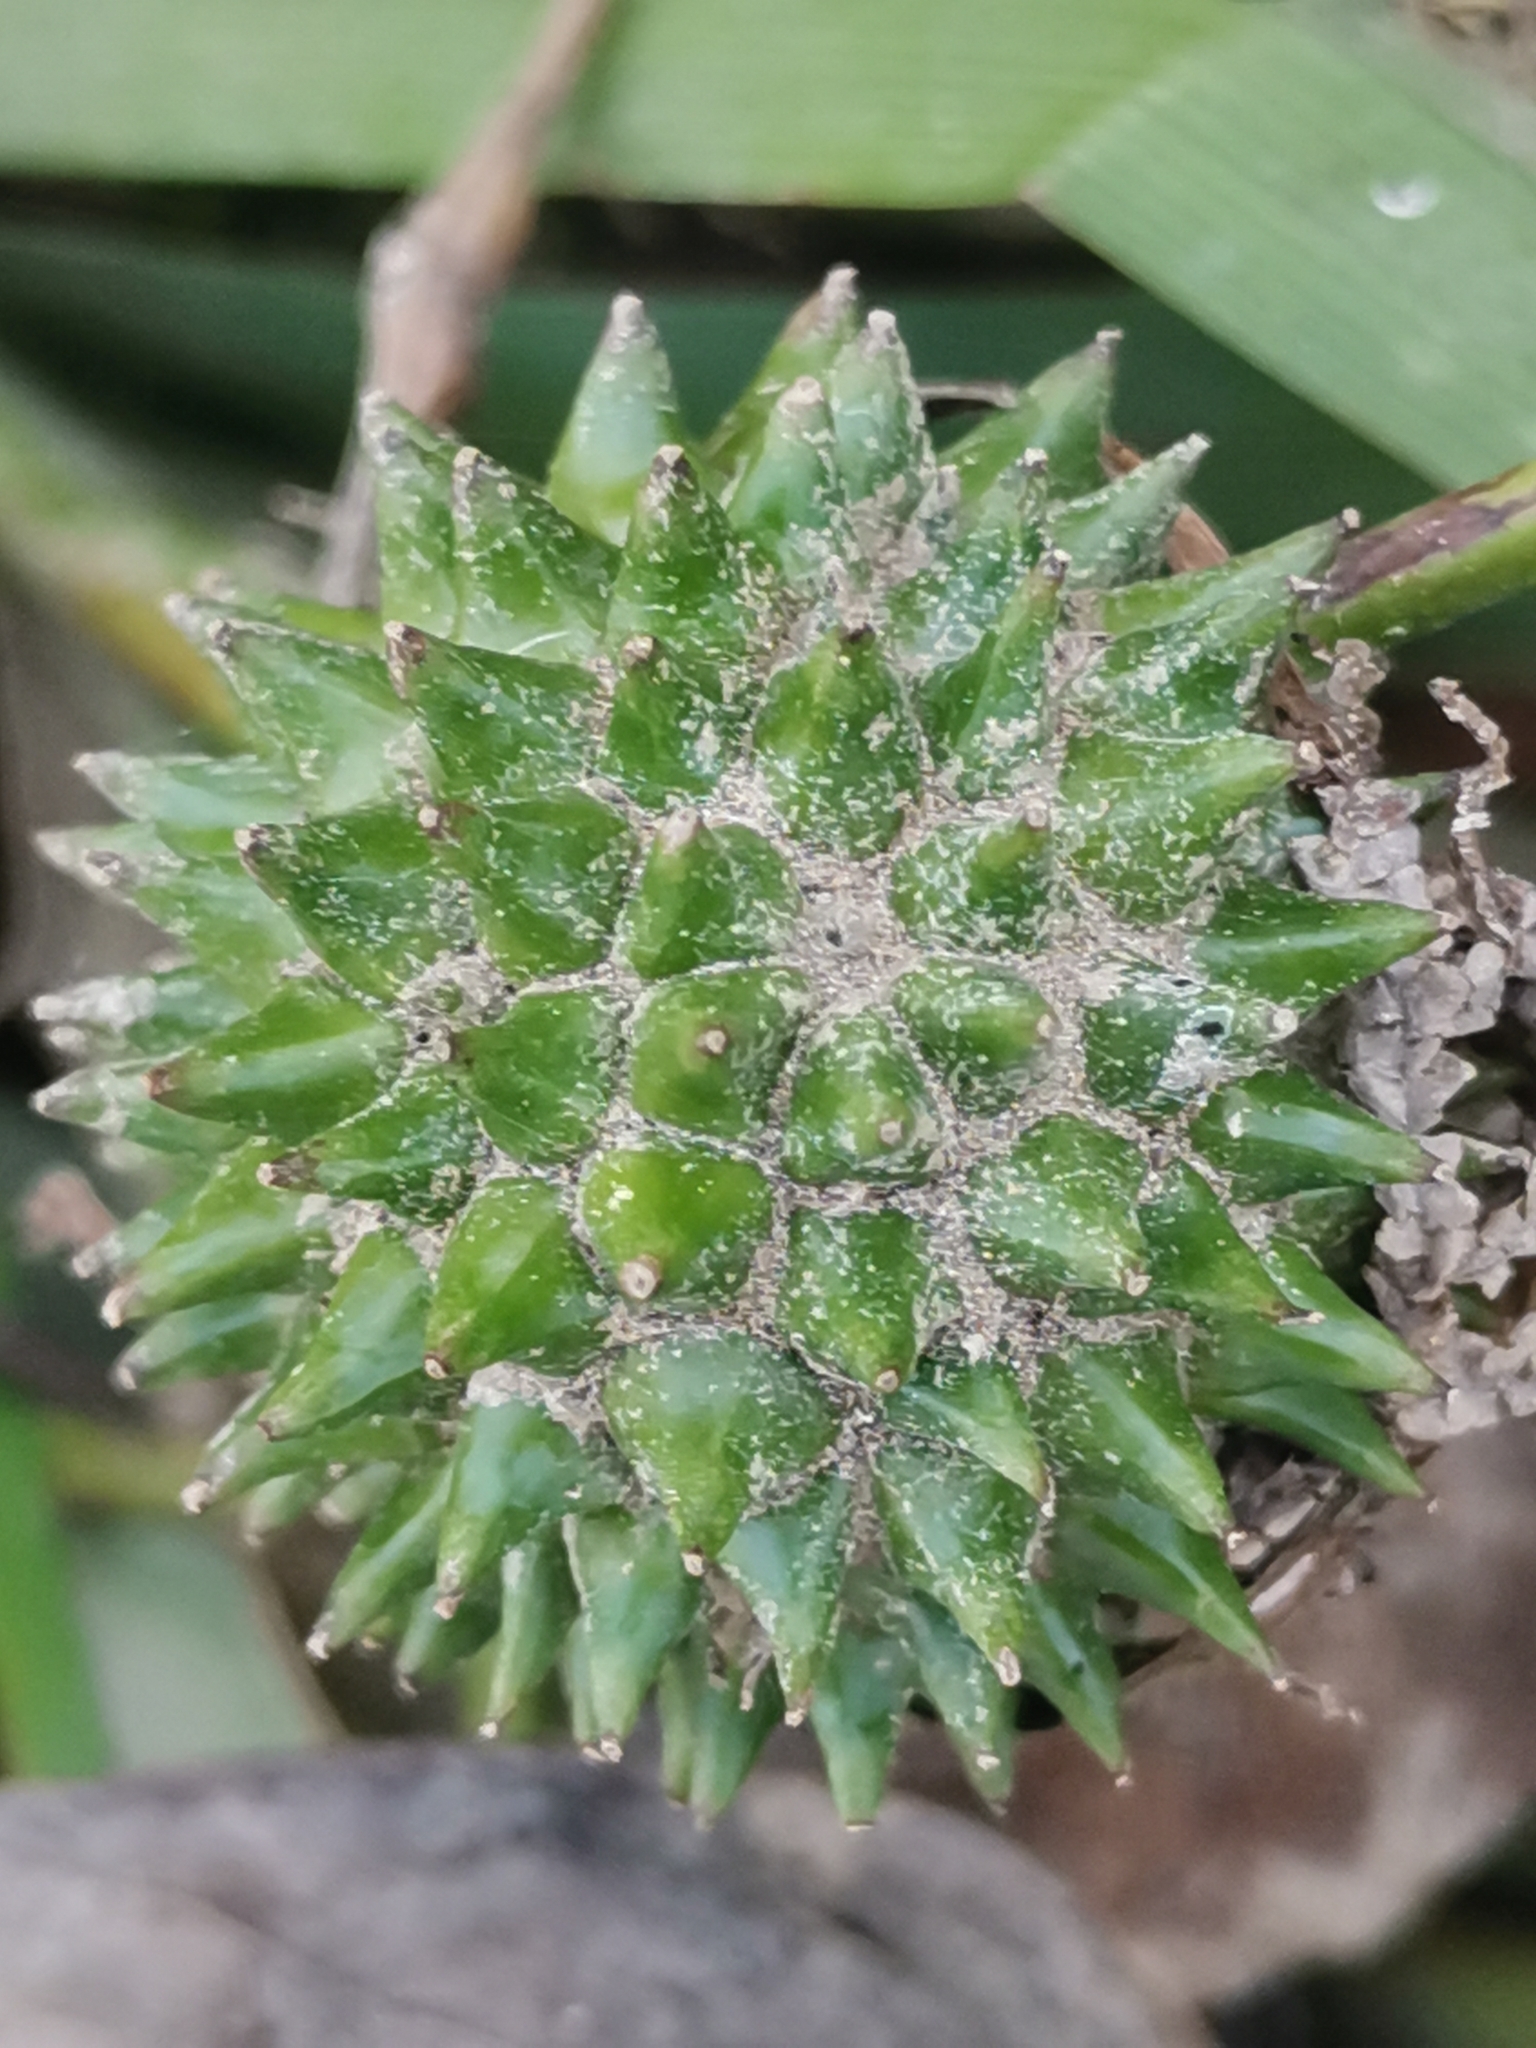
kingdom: Plantae
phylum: Tracheophyta
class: Liliopsida
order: Poales
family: Typhaceae
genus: Sparganium
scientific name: Sparganium erectum
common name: Branched bur-reed
